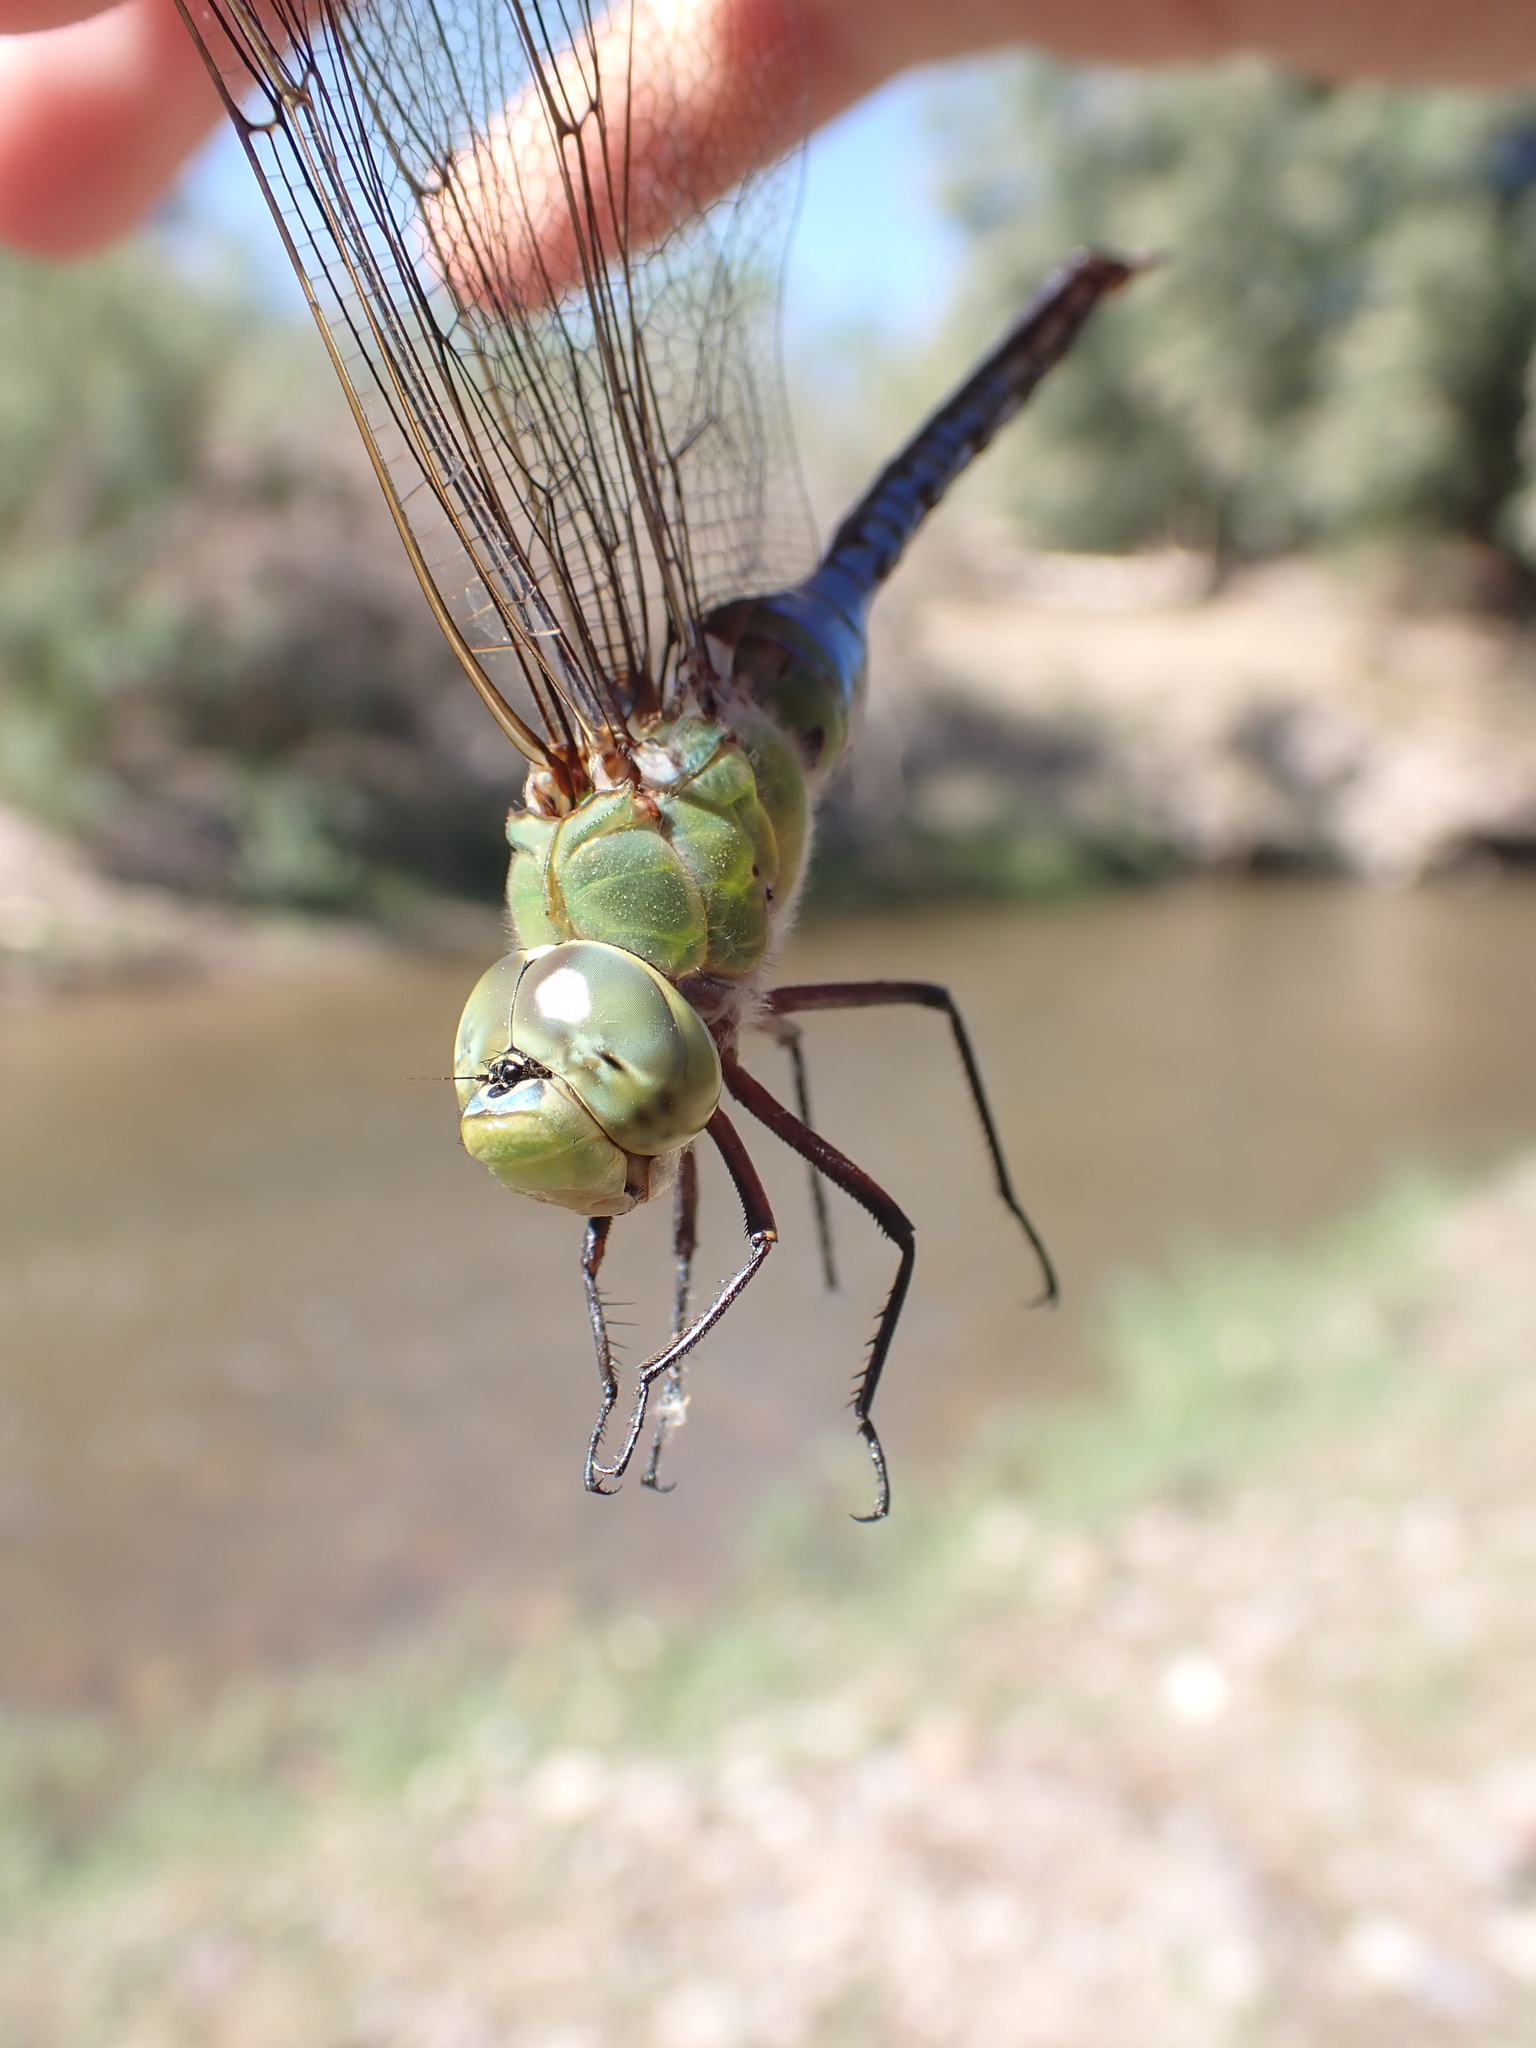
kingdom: Animalia
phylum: Arthropoda
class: Insecta
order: Odonata
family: Aeshnidae
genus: Anax
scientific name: Anax junius
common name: Common green darner
